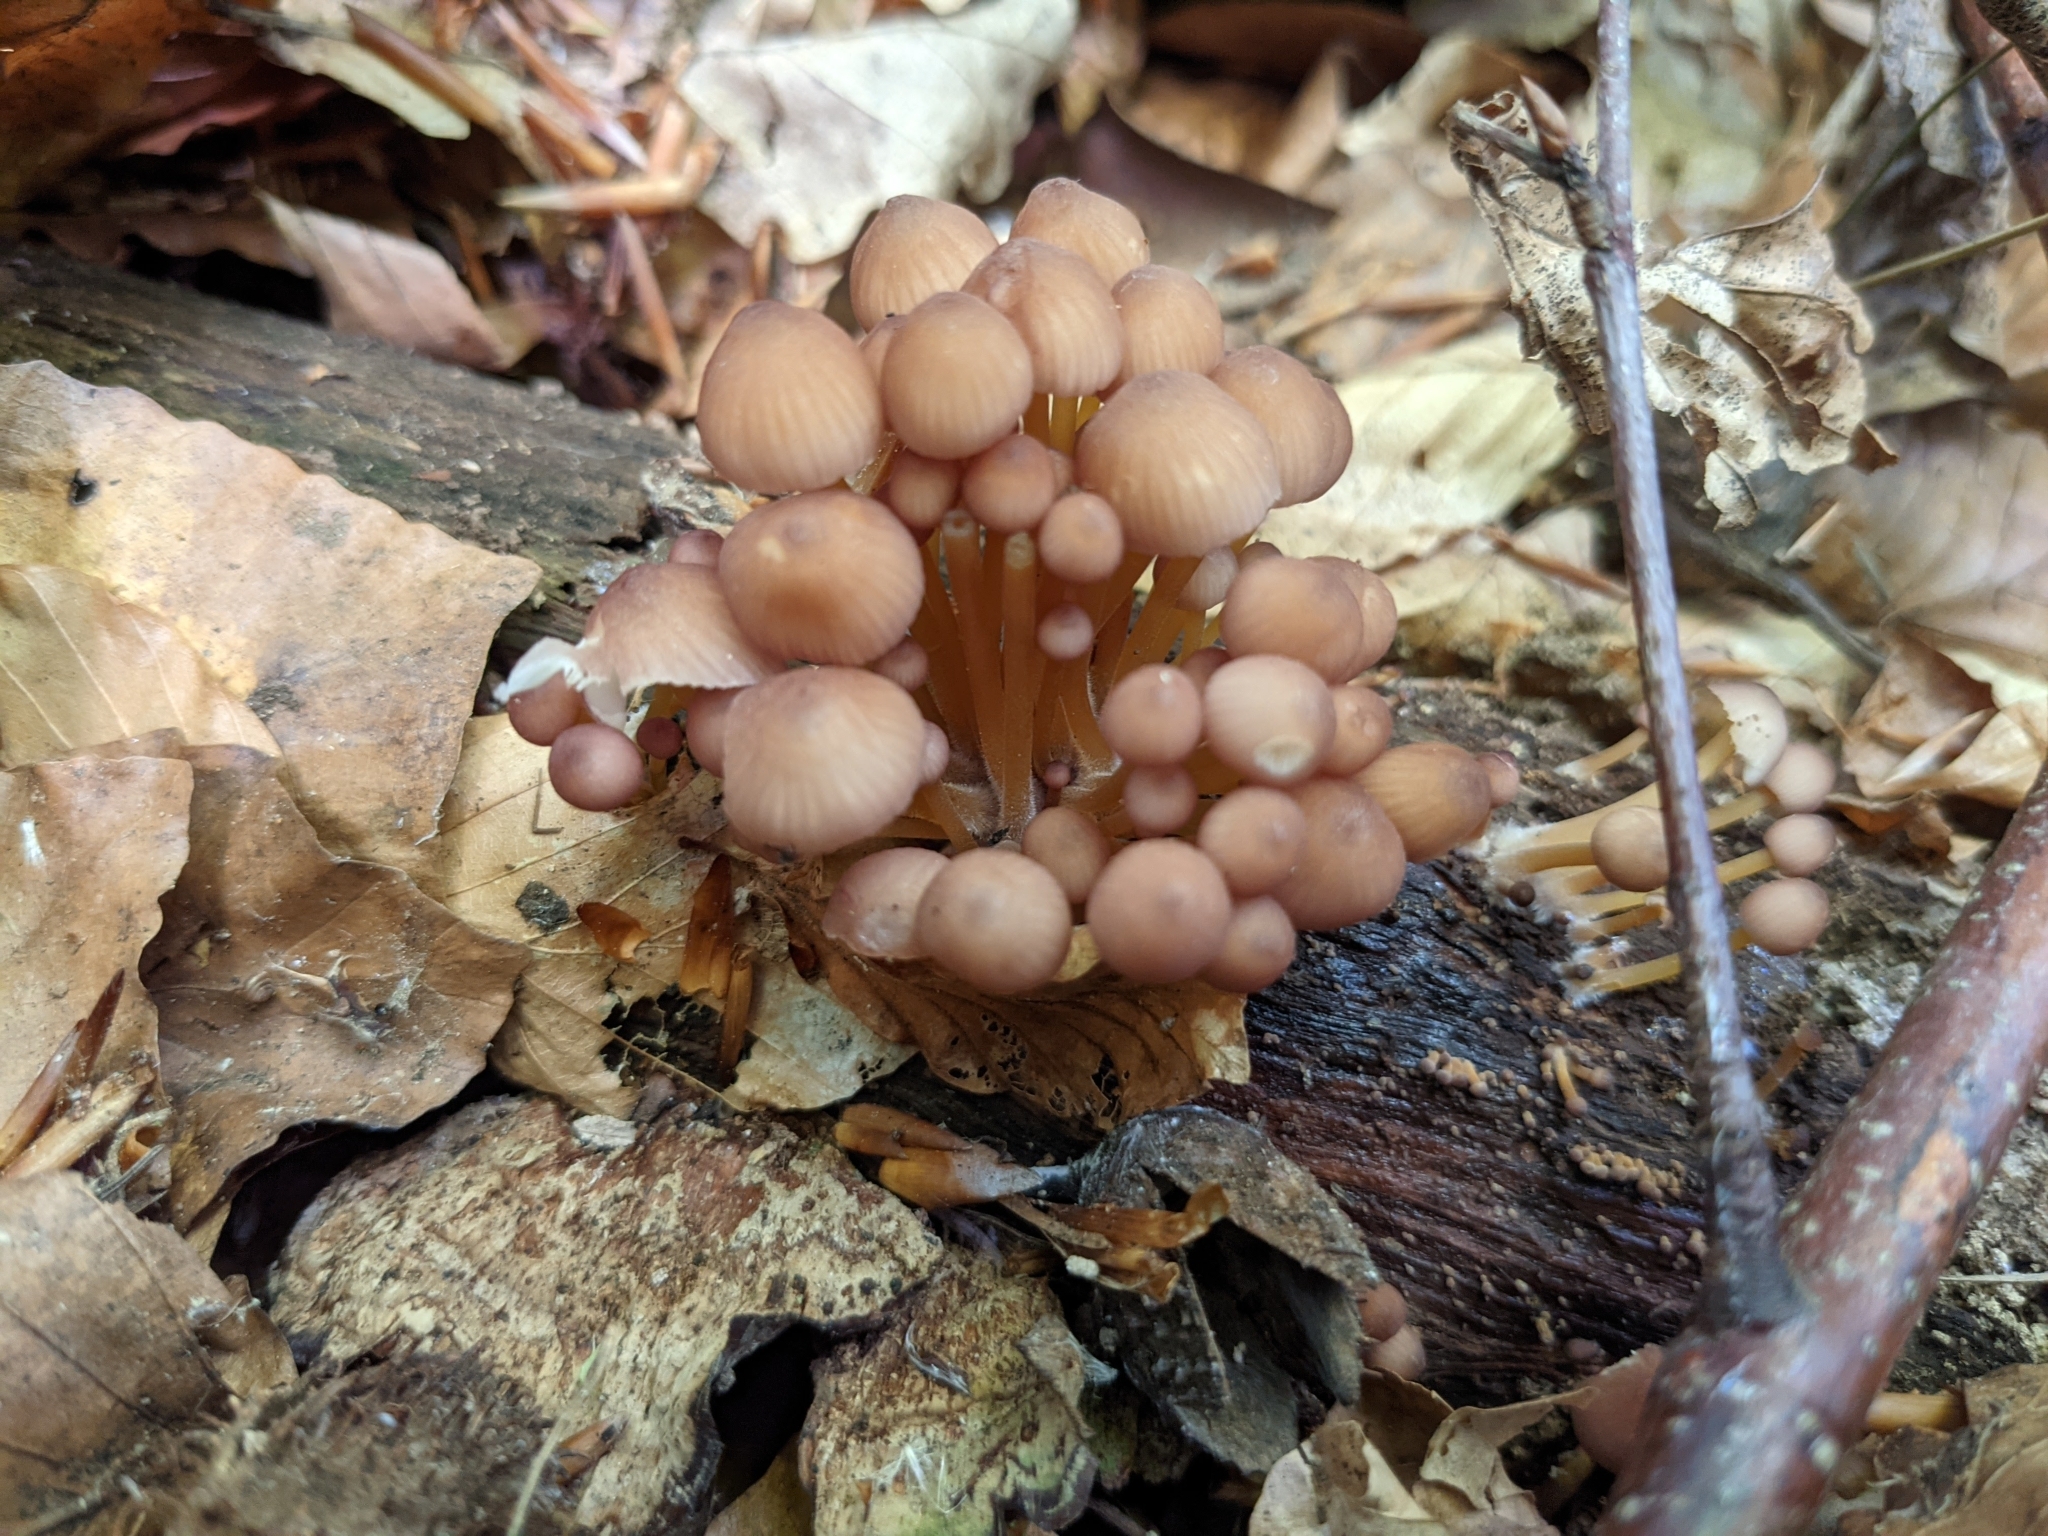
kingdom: Fungi
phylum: Basidiomycota
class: Agaricomycetes
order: Agaricales
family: Mycenaceae
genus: Mycena
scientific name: Mycena renati
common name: Beautiful bonnet
